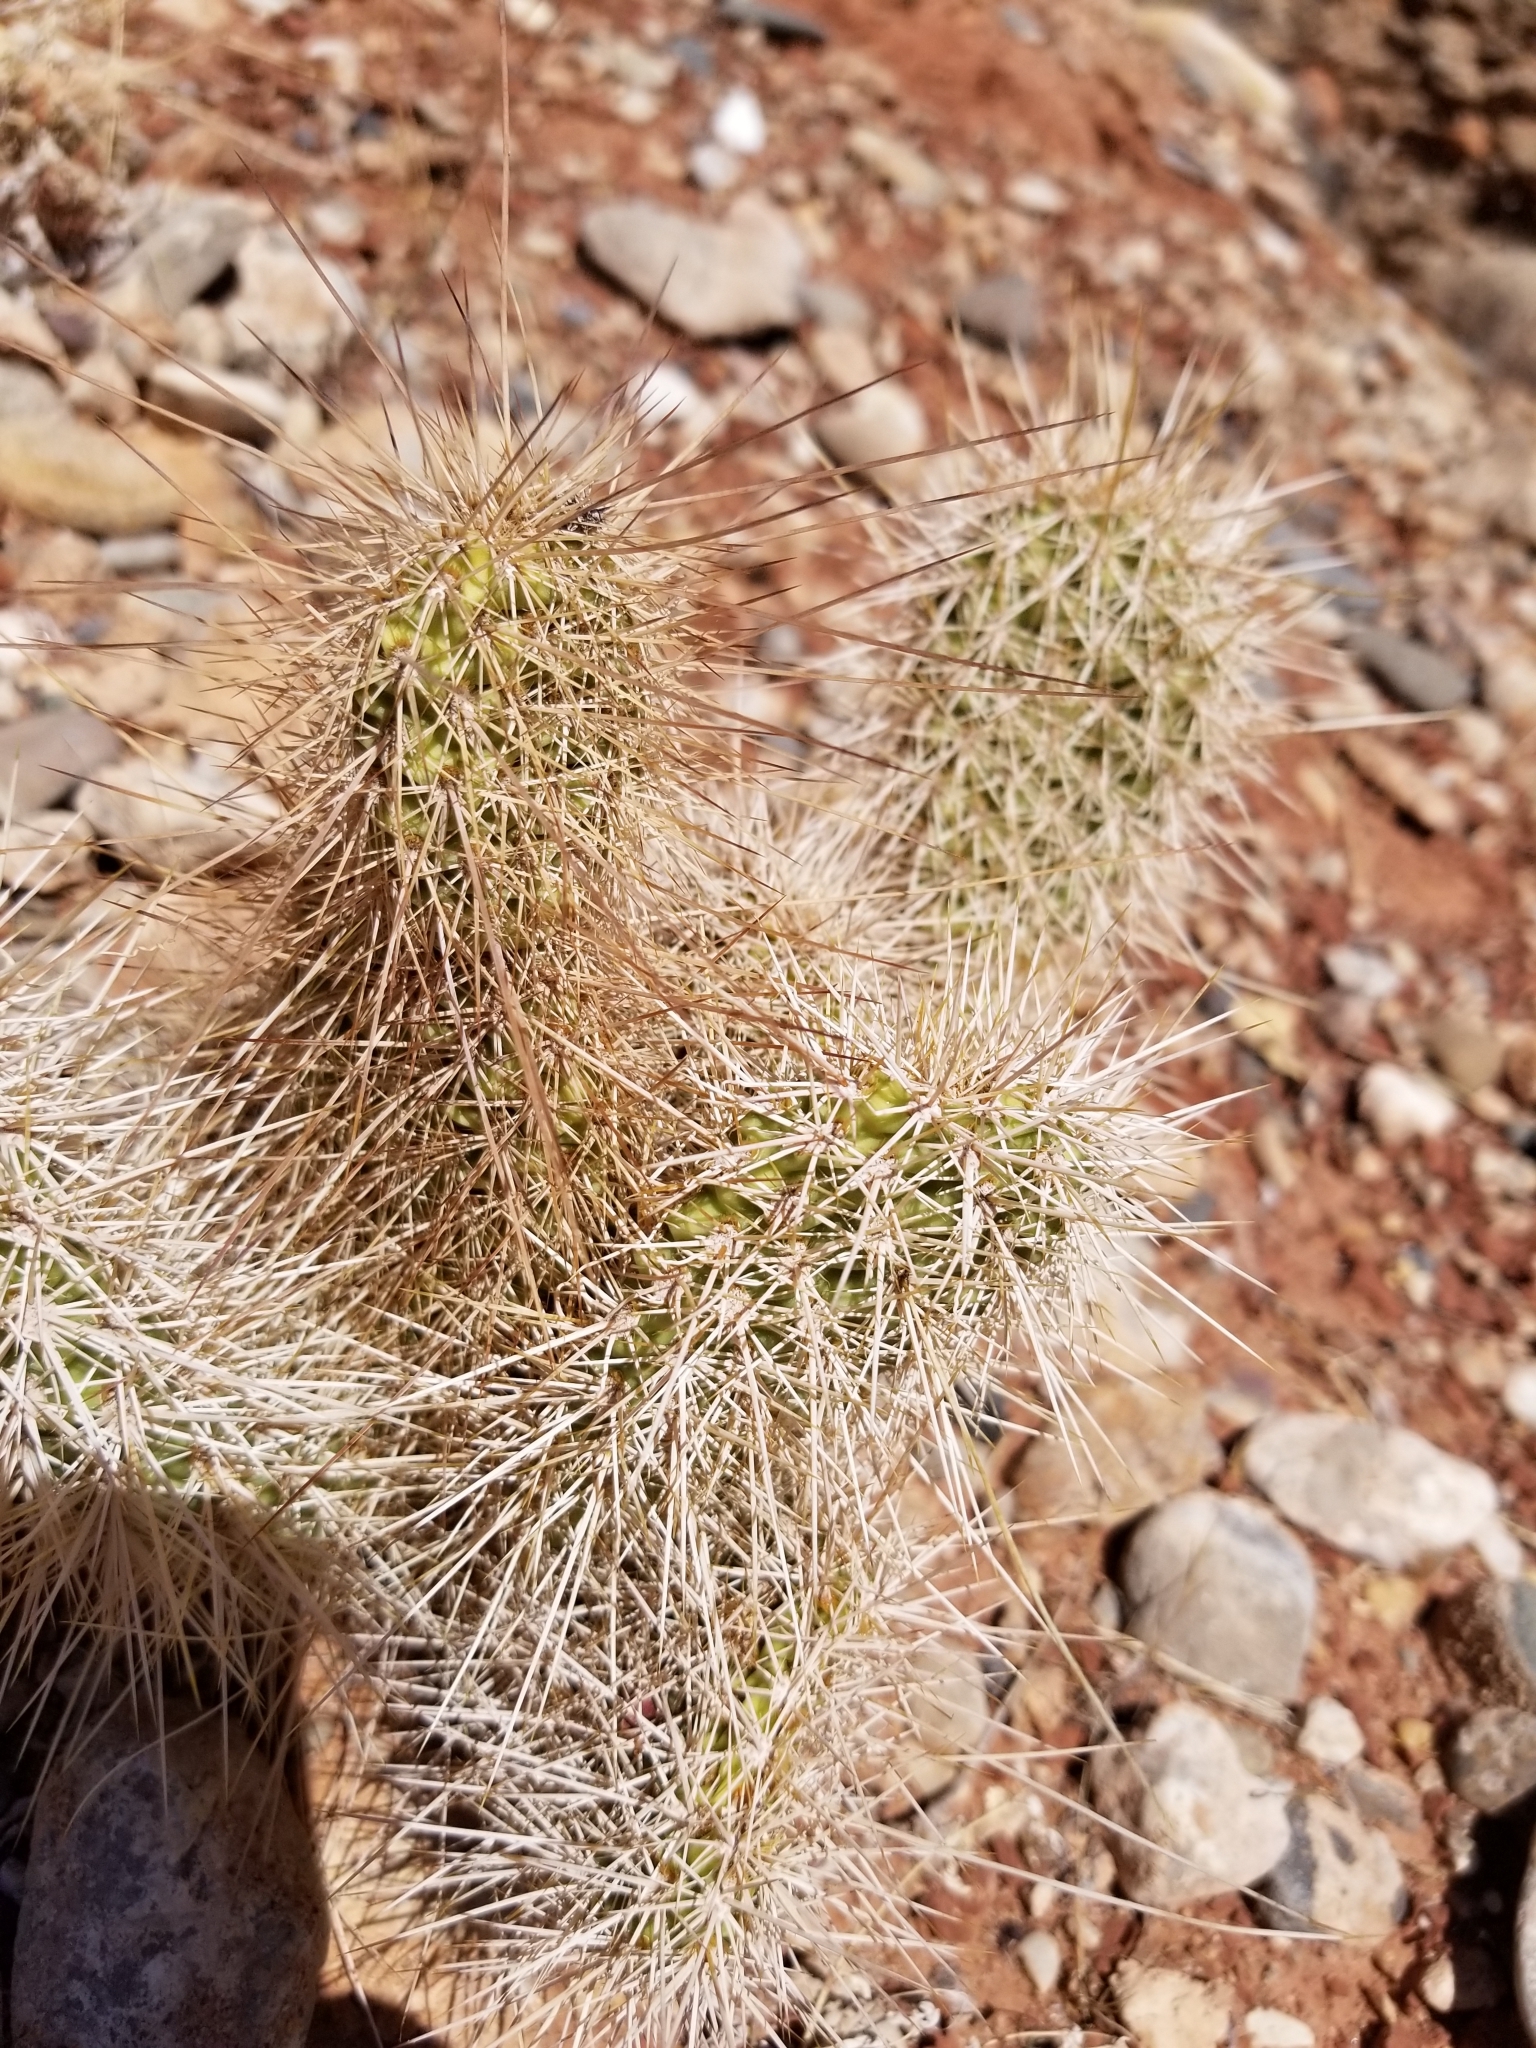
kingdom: Plantae
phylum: Tracheophyta
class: Magnoliopsida
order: Caryophyllales
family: Cactaceae
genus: Opuntia
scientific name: Opuntia polyacantha
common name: Plains prickly-pear
